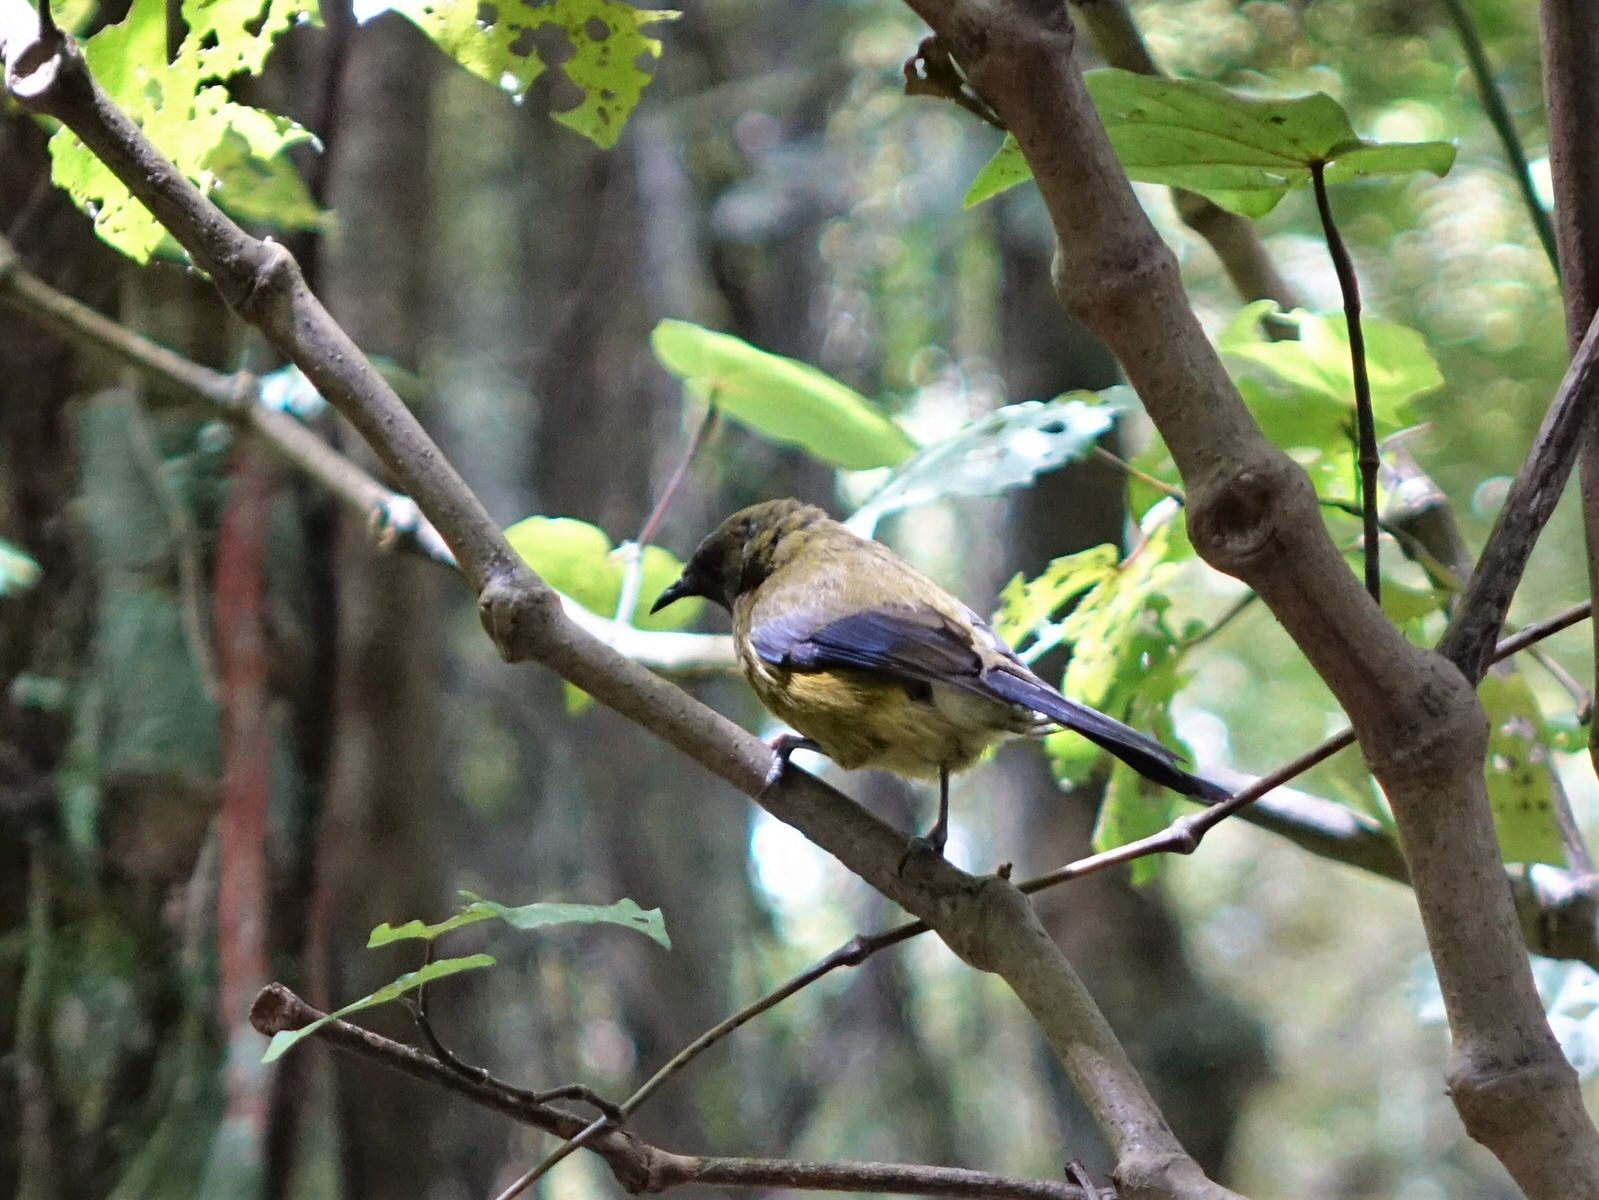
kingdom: Animalia
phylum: Chordata
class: Aves
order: Passeriformes
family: Meliphagidae
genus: Anthornis
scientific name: Anthornis melanura
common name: New zealand bellbird
